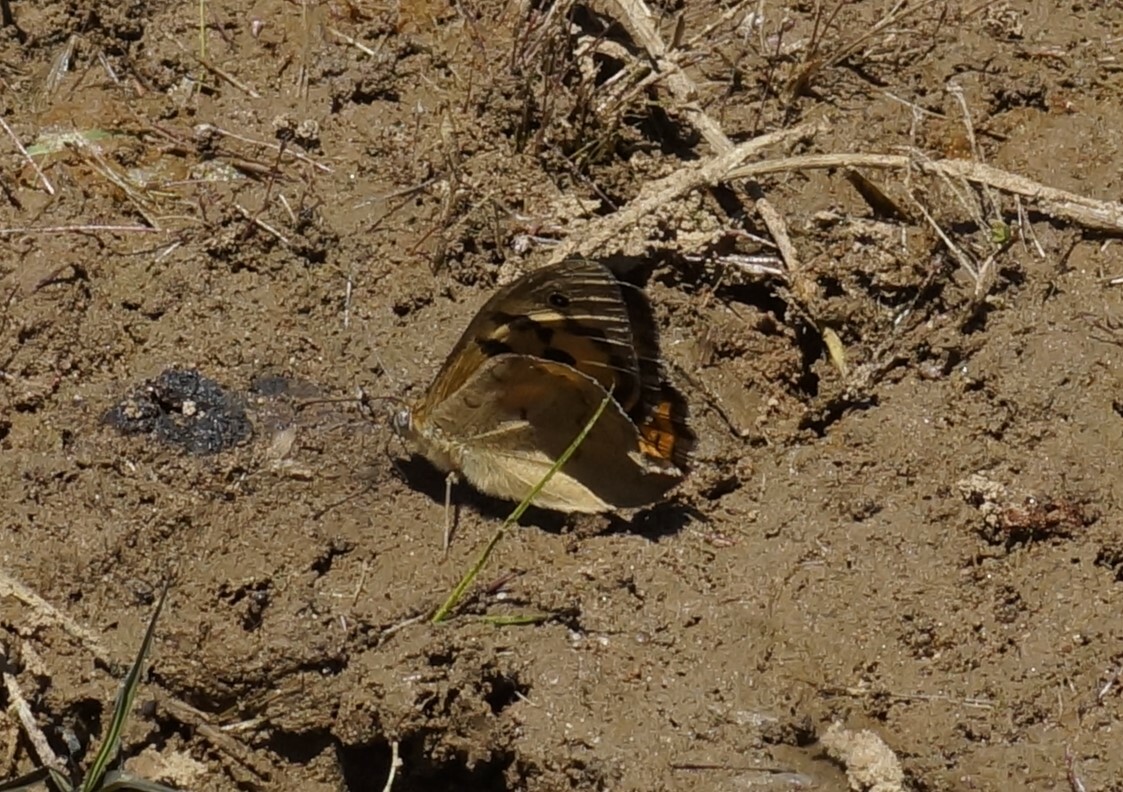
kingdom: Animalia
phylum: Arthropoda
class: Insecta
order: Lepidoptera
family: Nymphalidae
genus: Heteronympha
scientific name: Heteronympha merope
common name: Common brown
